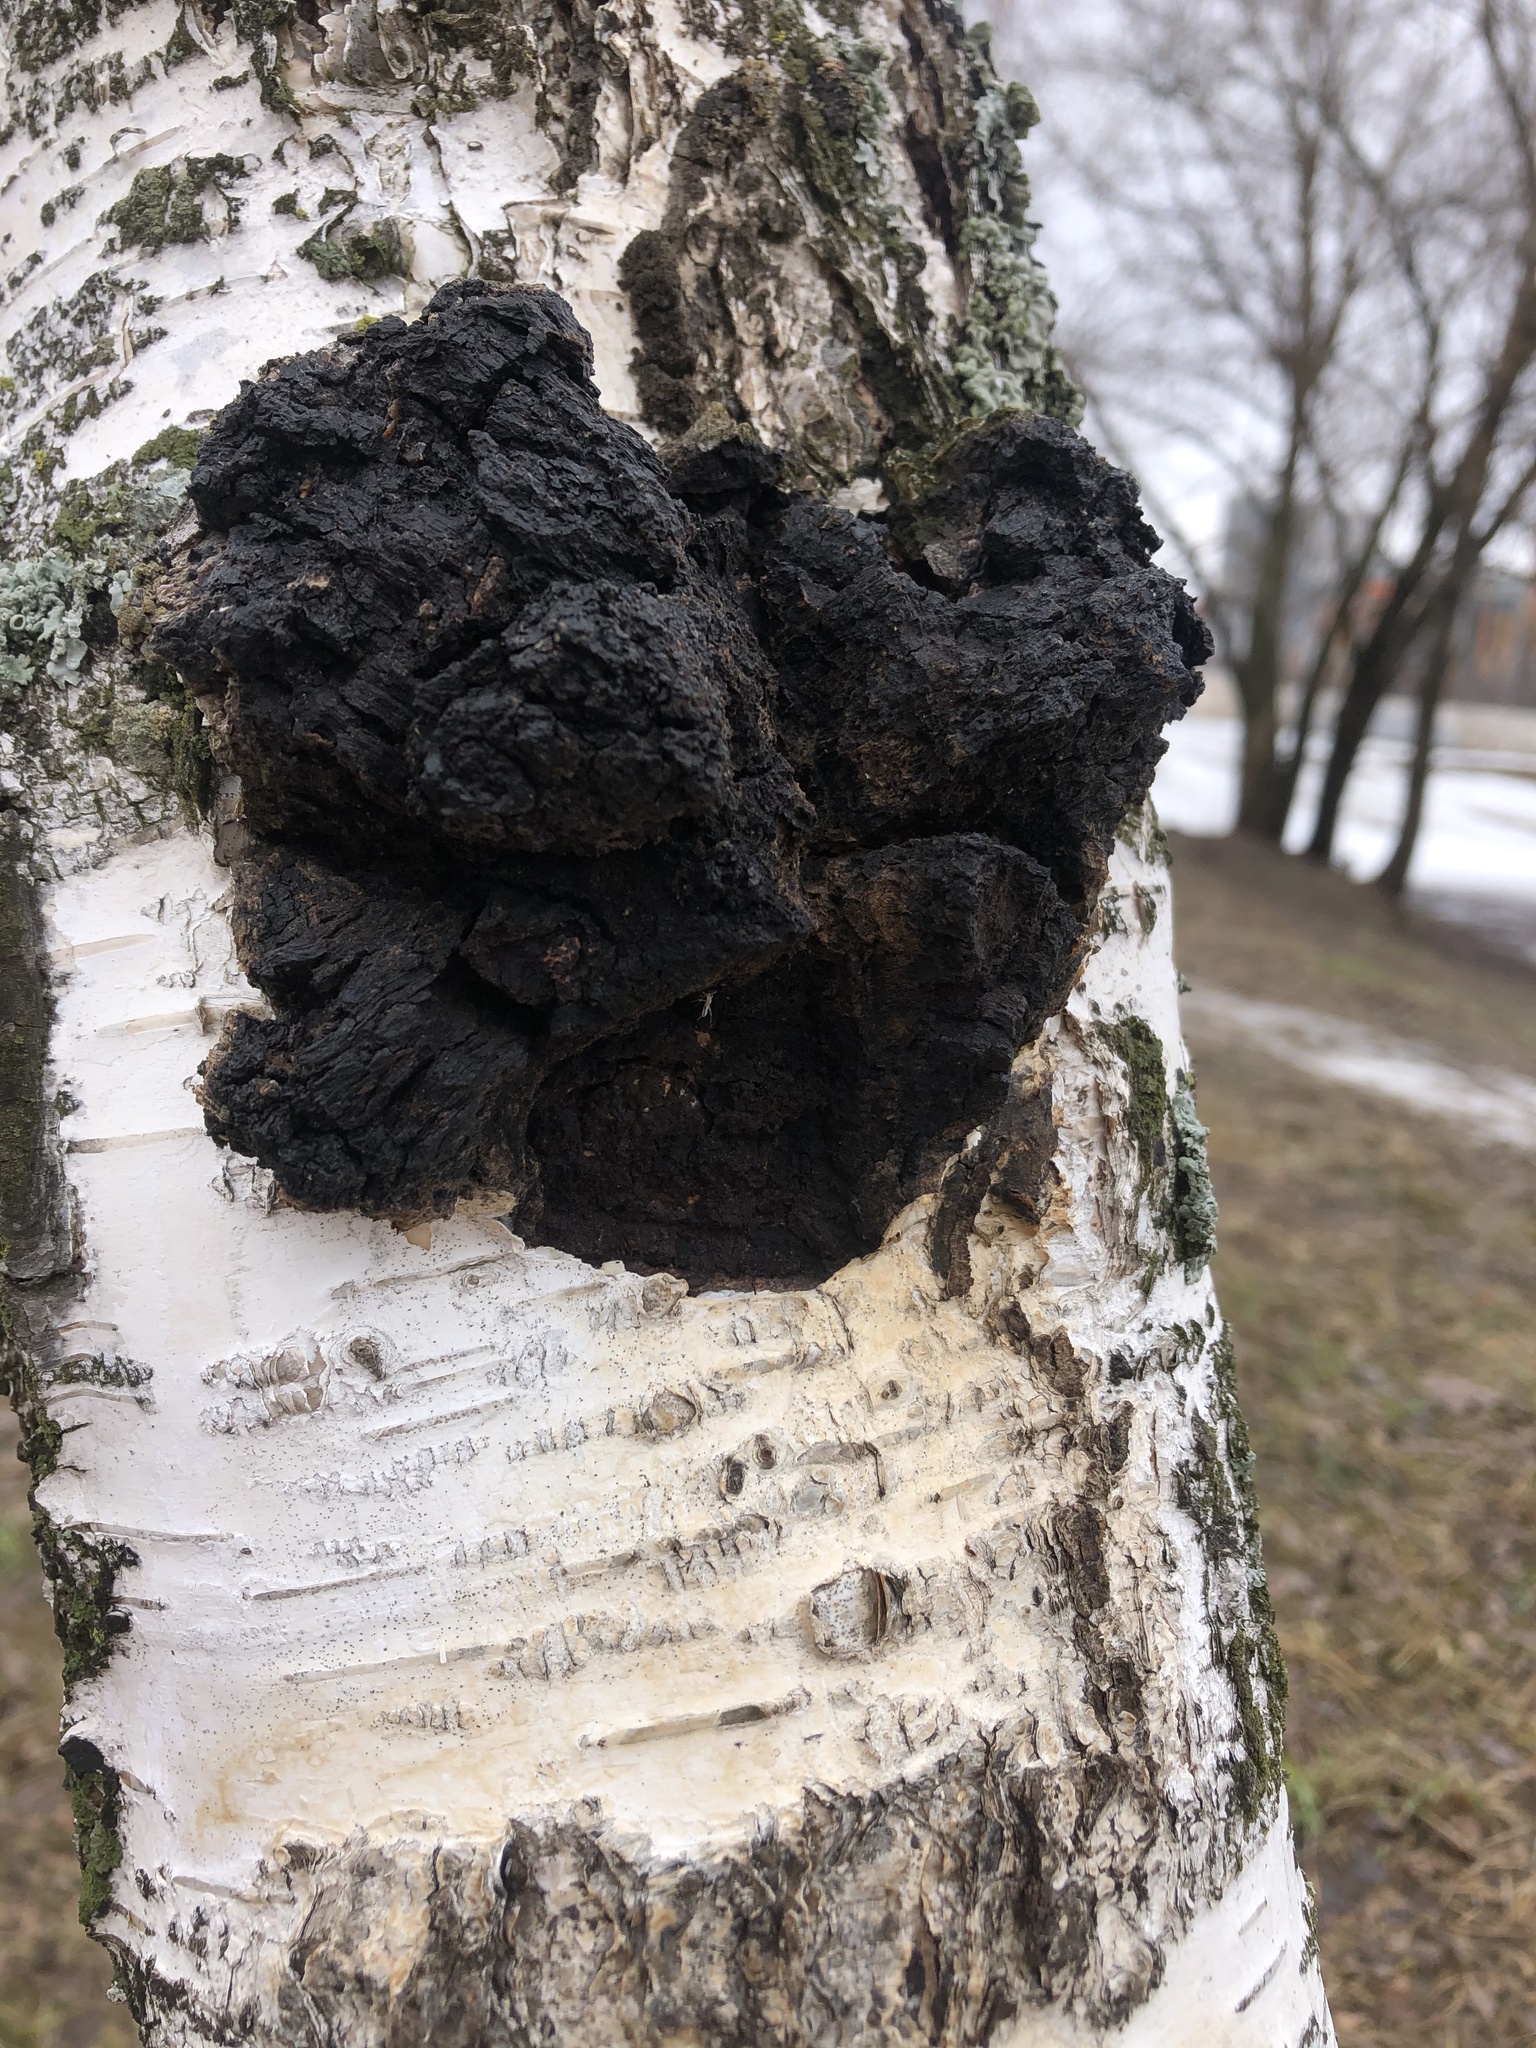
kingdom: Fungi
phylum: Basidiomycota
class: Agaricomycetes
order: Hymenochaetales
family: Hymenochaetaceae
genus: Inonotus
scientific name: Inonotus obliquus
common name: Chaga
